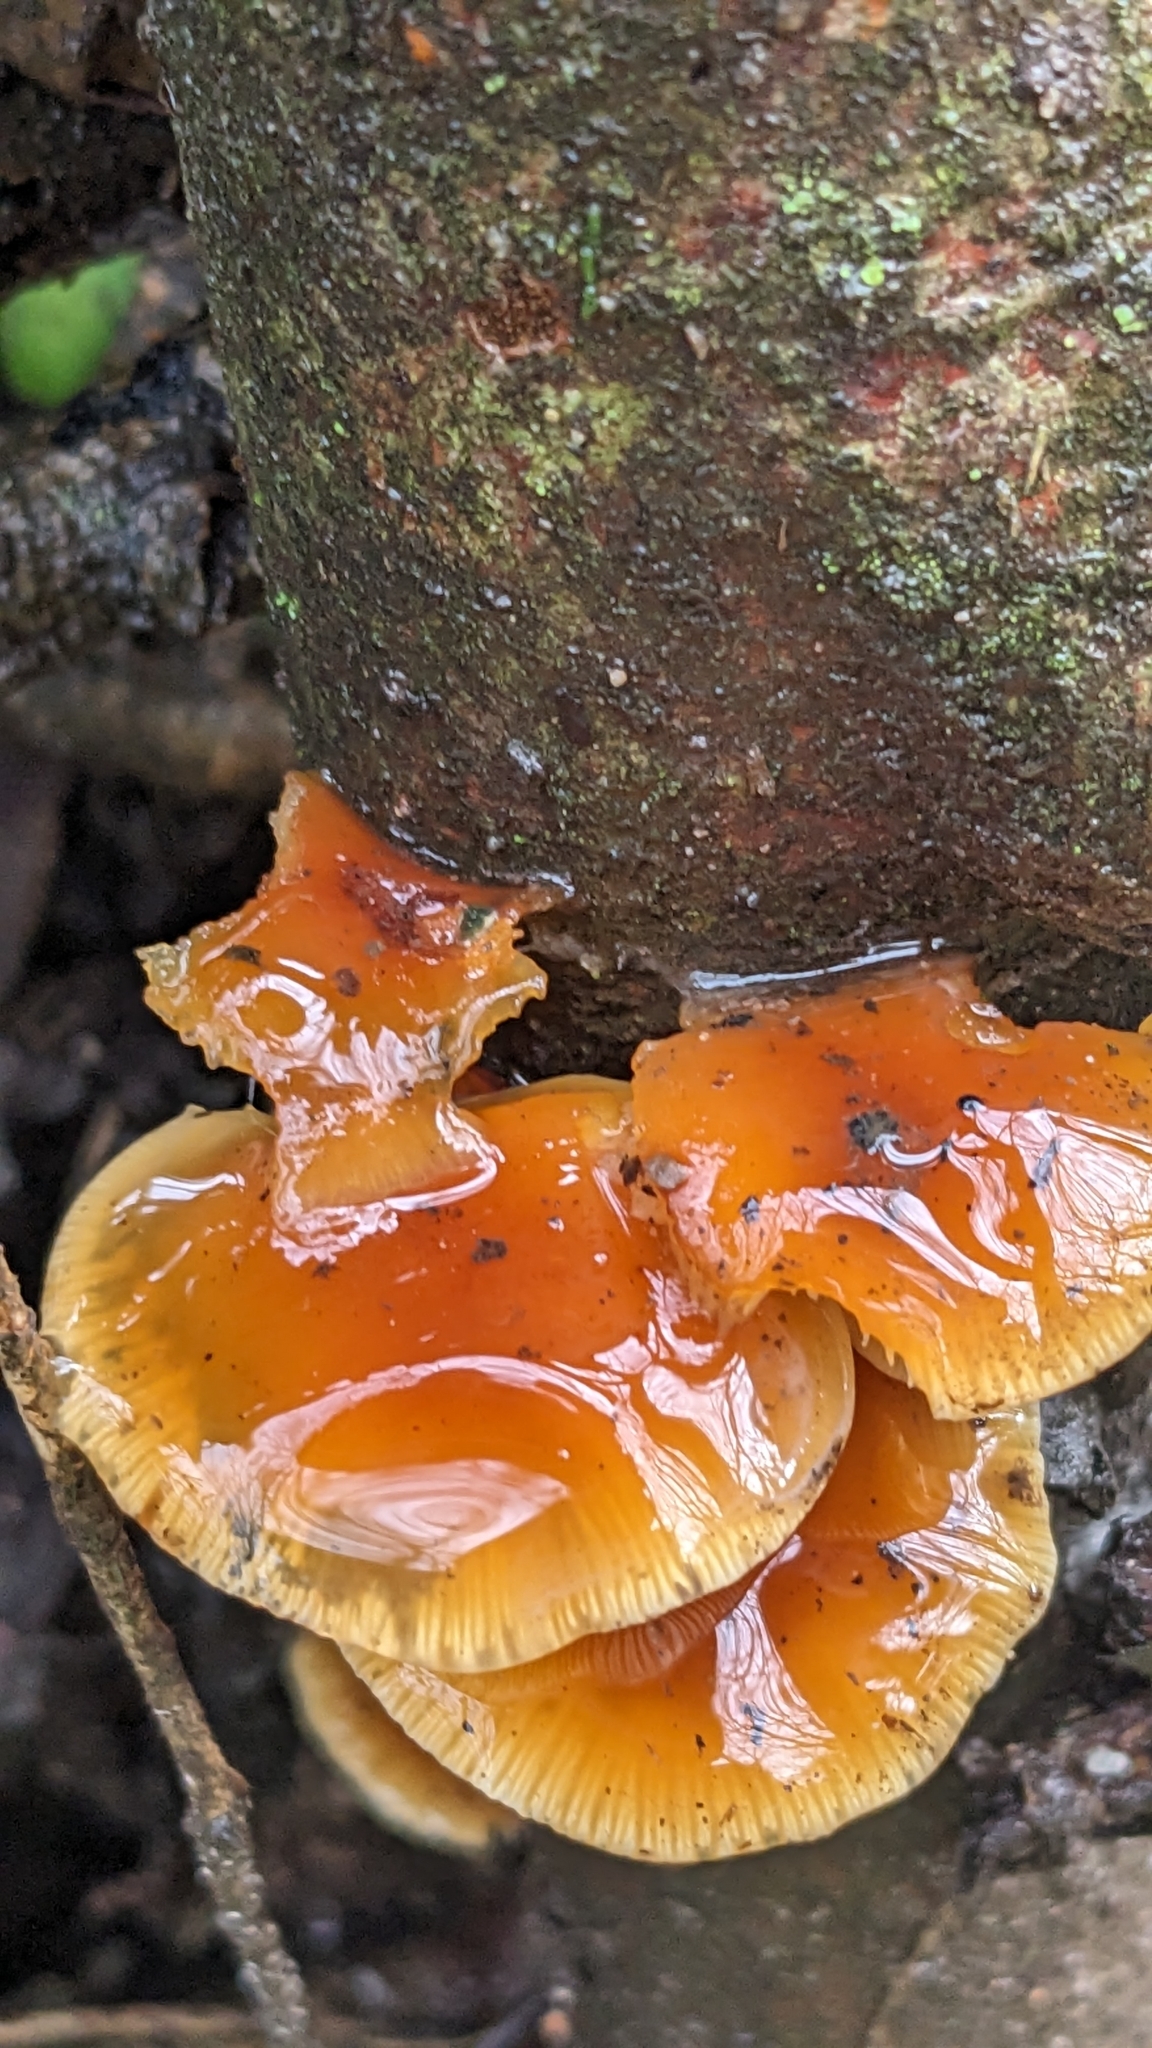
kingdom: Fungi
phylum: Basidiomycota
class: Agaricomycetes
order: Agaricales
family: Physalacriaceae
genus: Flammulina
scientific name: Flammulina
